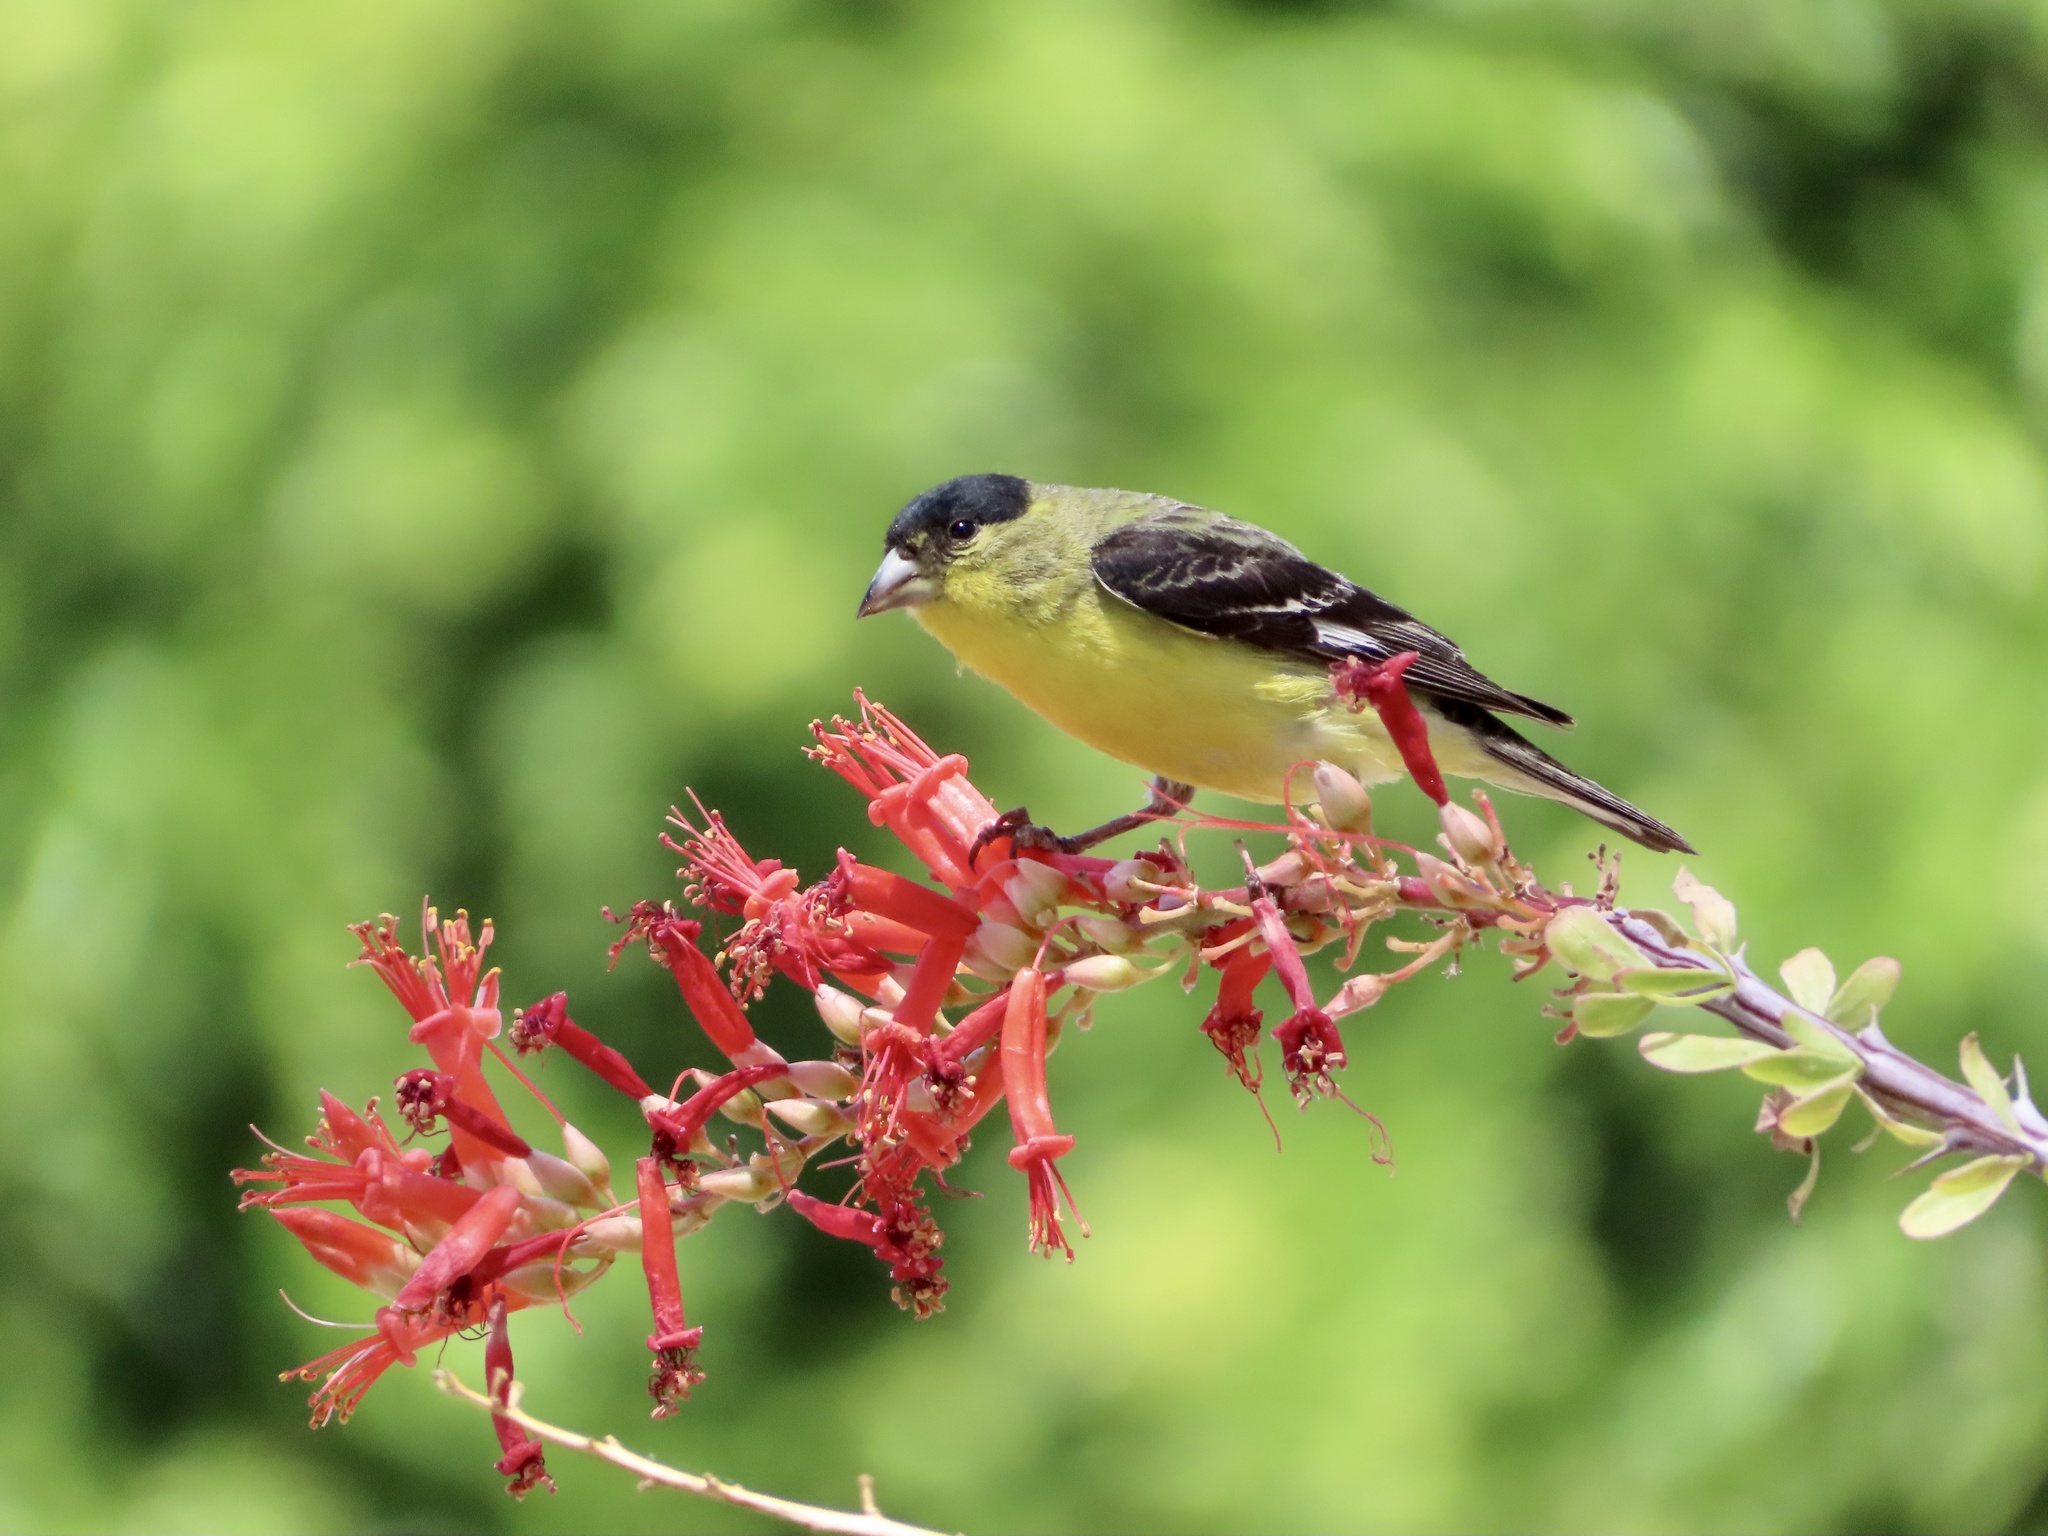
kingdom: Animalia
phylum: Chordata
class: Aves
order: Passeriformes
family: Fringillidae
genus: Spinus
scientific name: Spinus psaltria
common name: Lesser goldfinch
